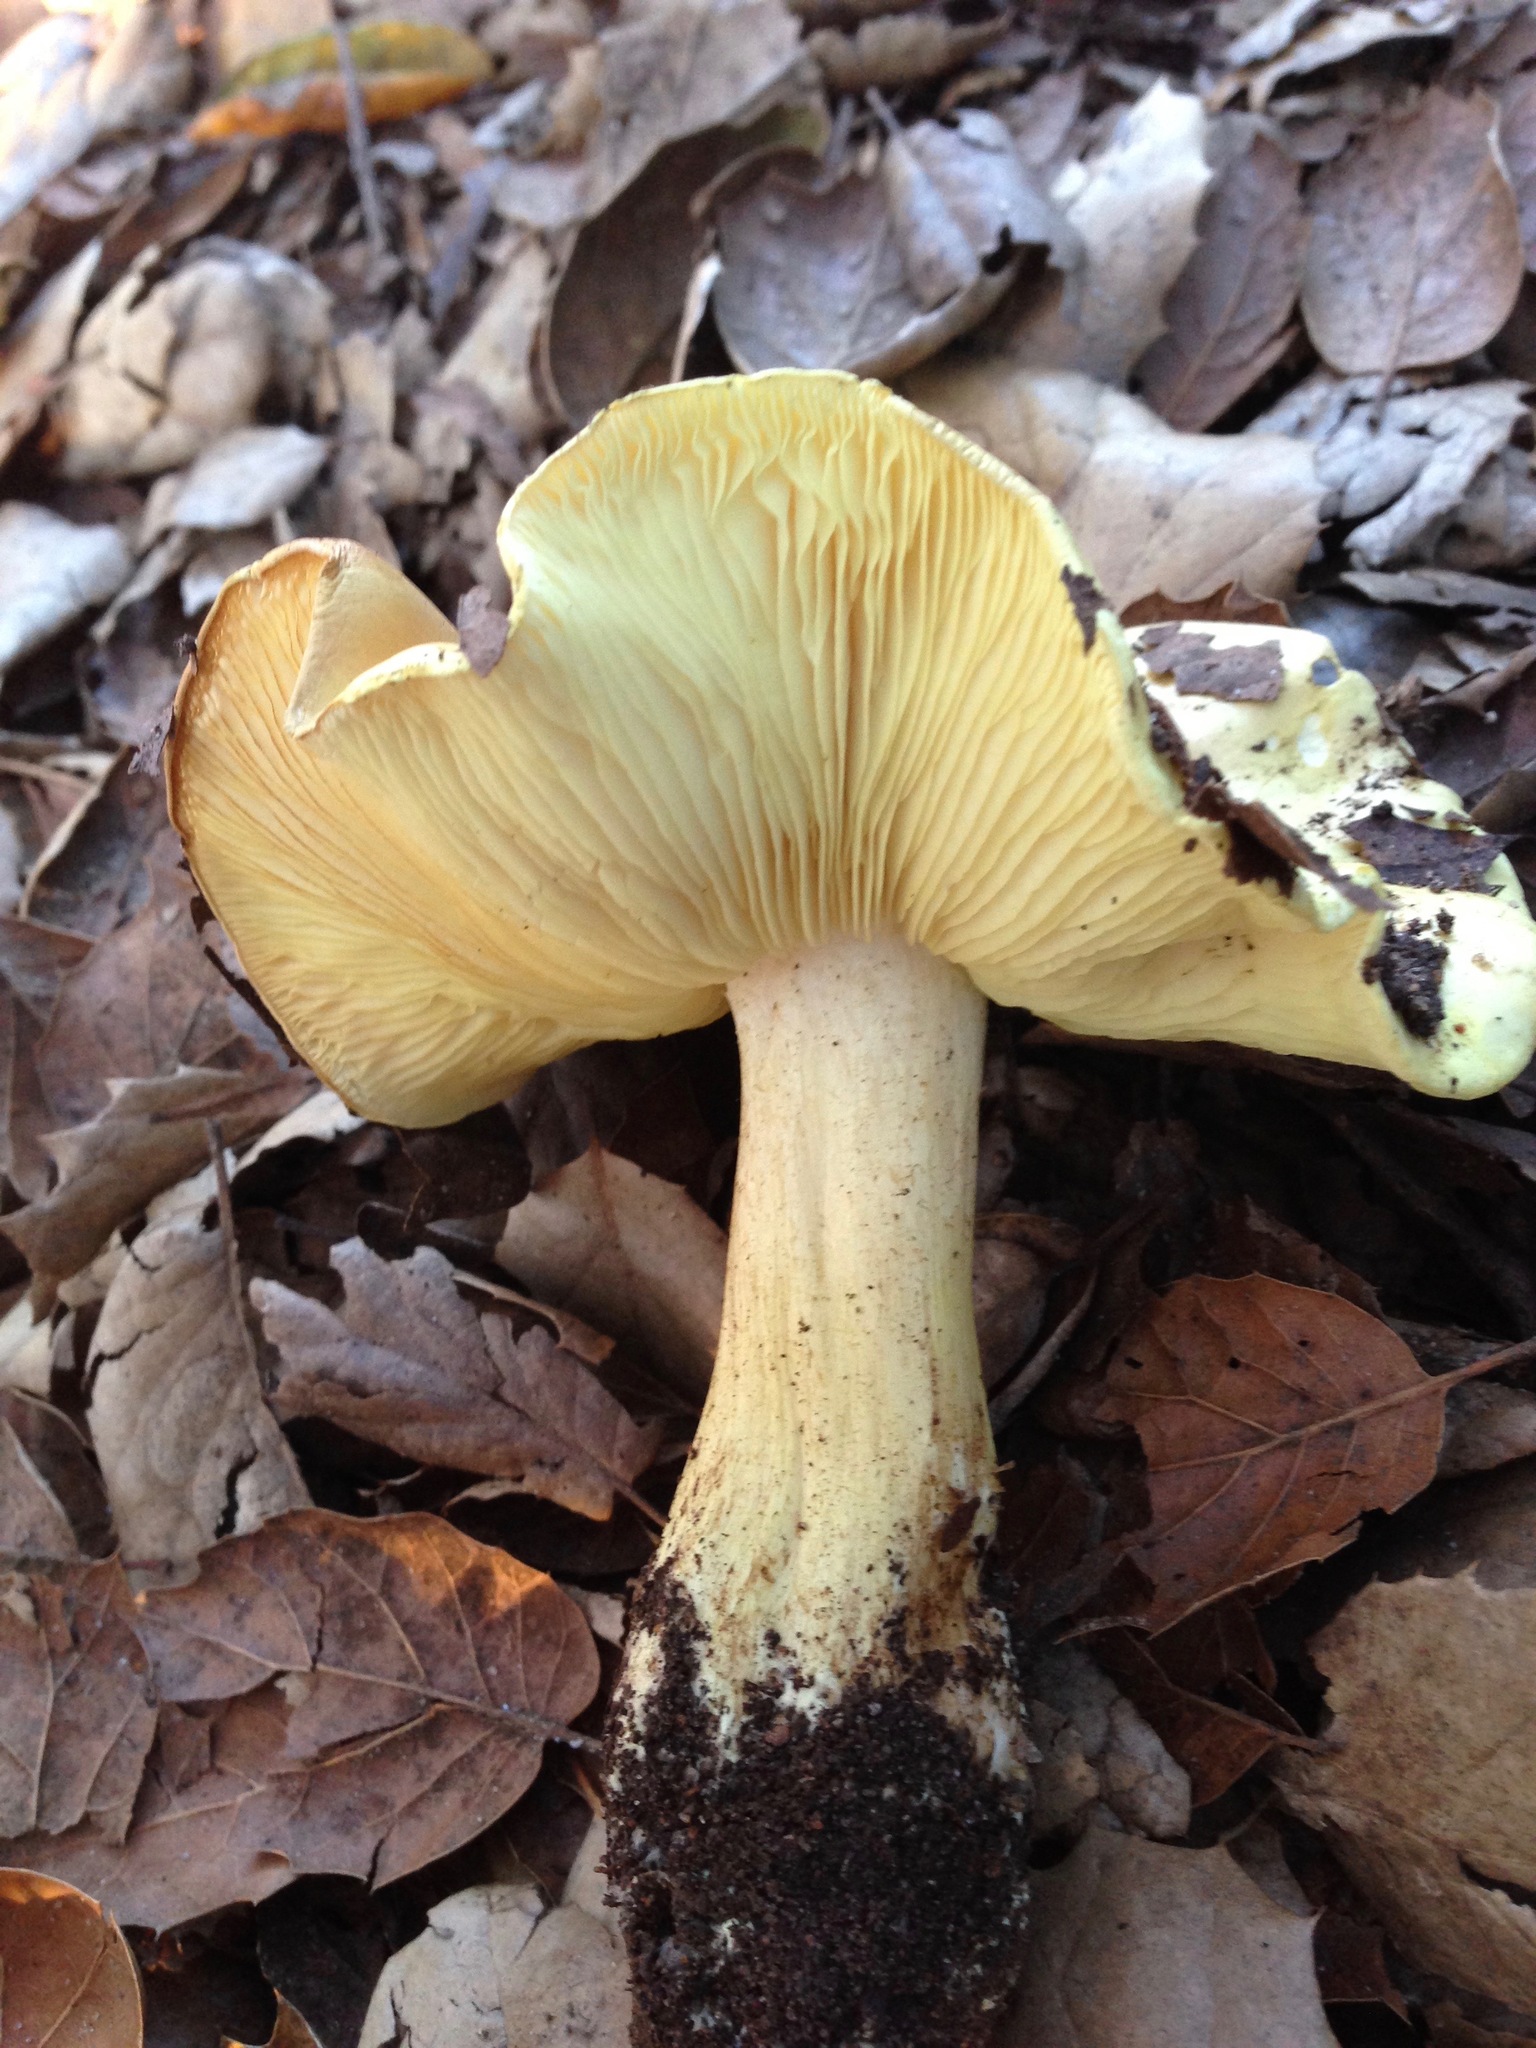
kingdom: Fungi
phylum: Basidiomycota
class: Agaricomycetes
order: Agaricales
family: Tricholomataceae
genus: Melanoleuca
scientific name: Melanoleuca yatesii
